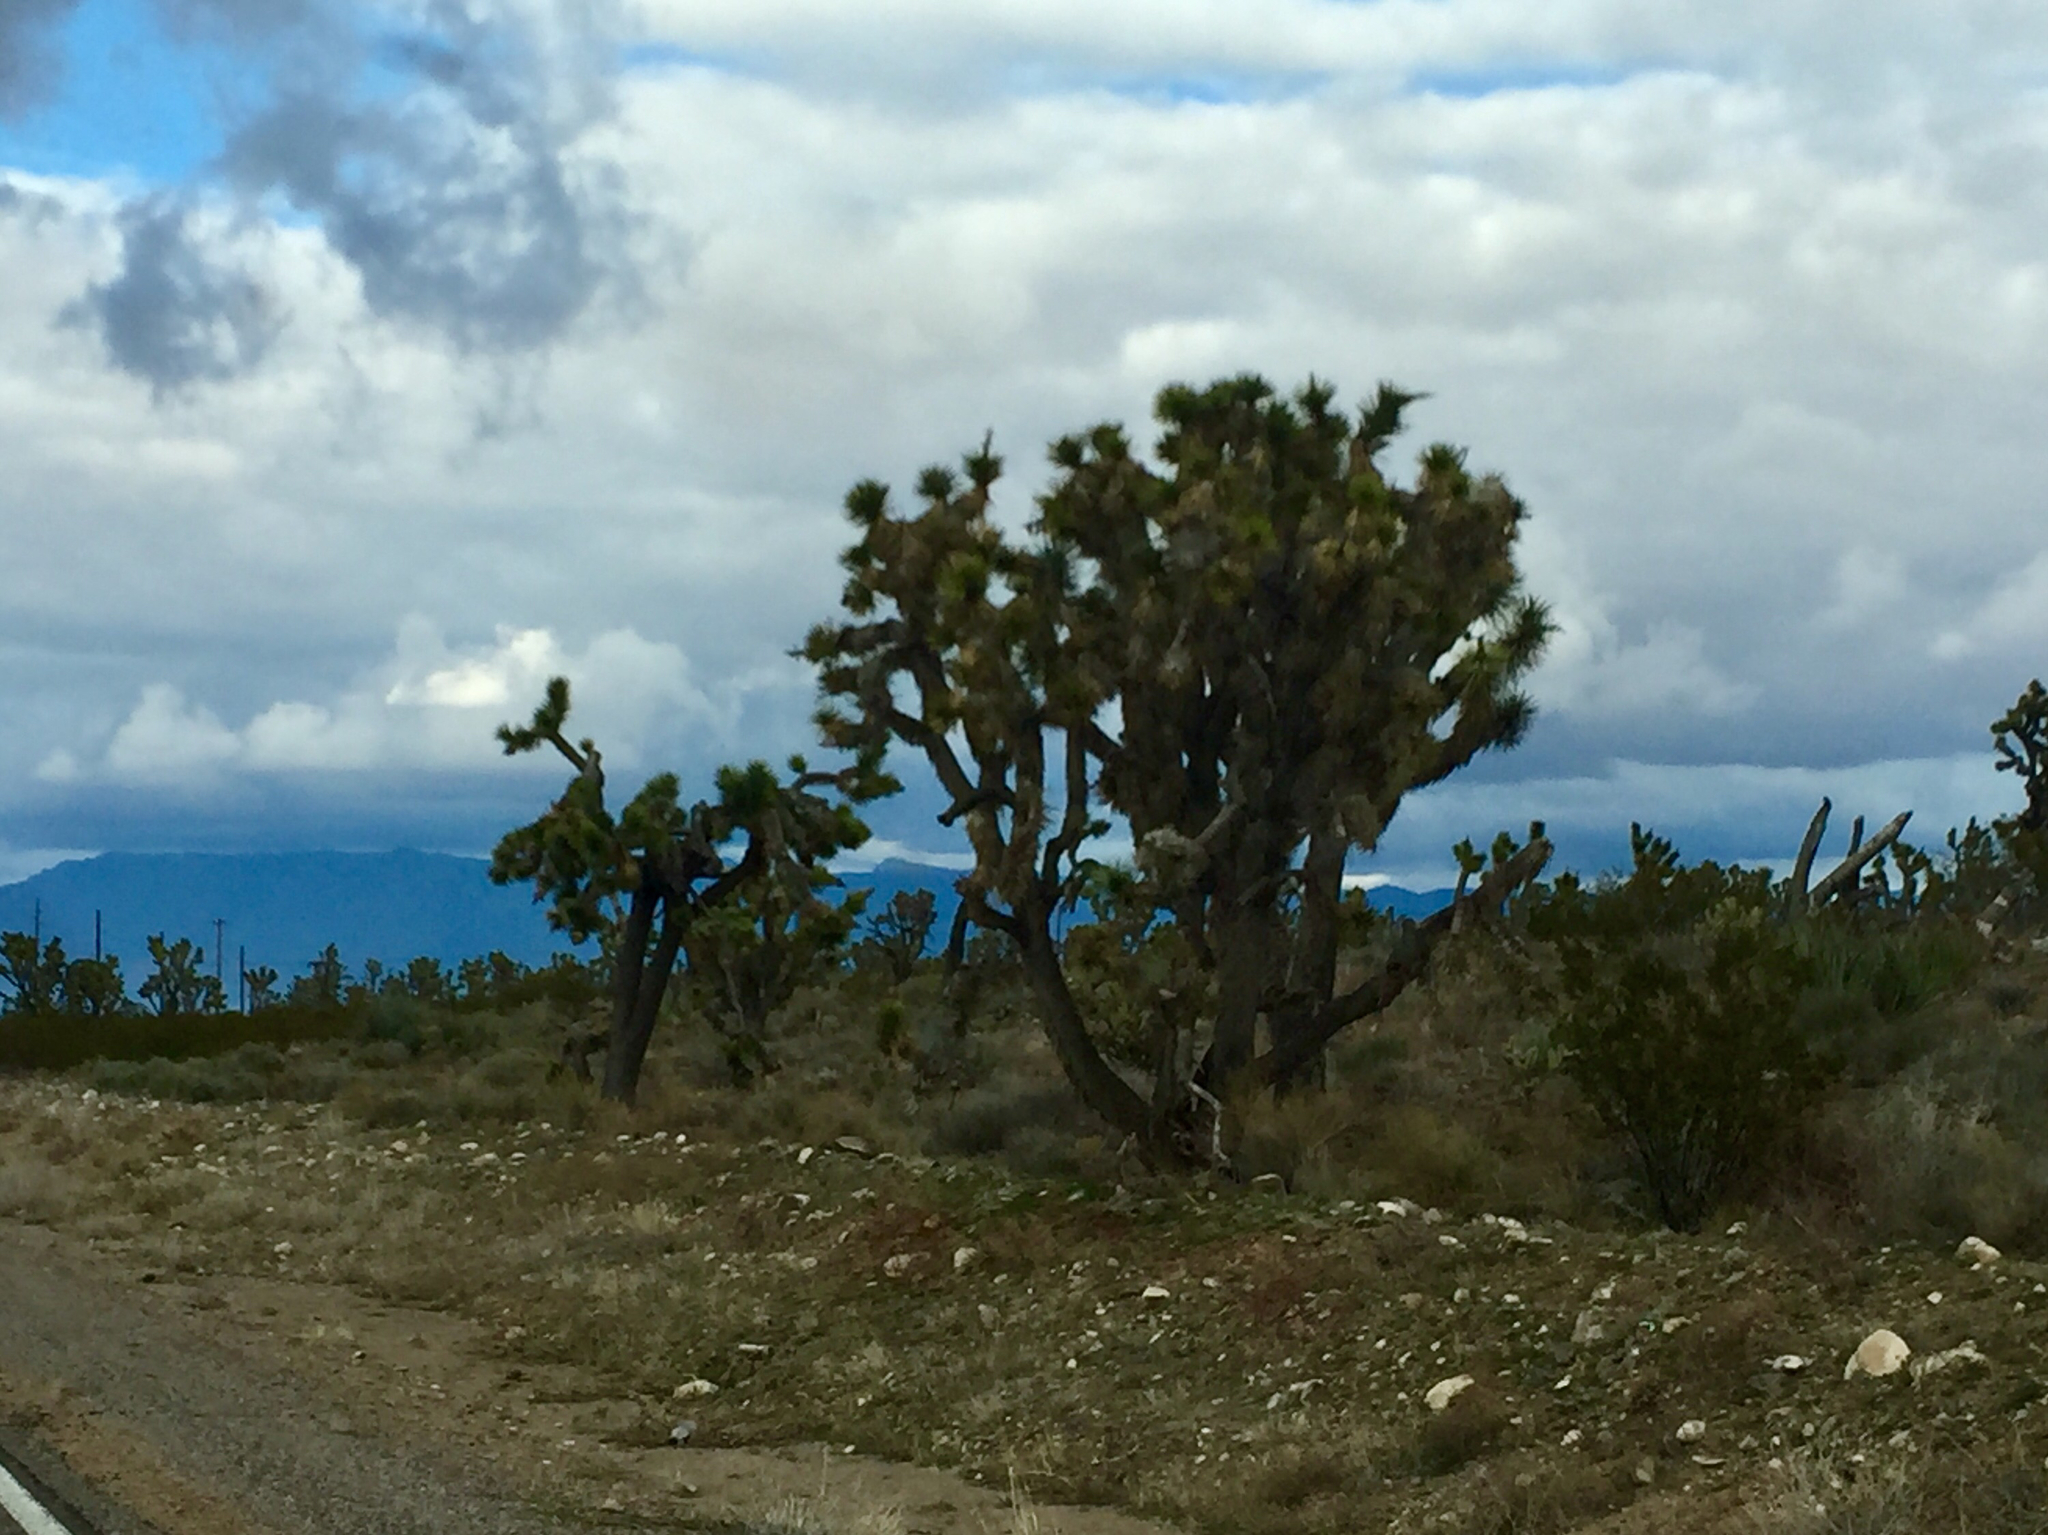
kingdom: Plantae
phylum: Tracheophyta
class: Liliopsida
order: Asparagales
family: Asparagaceae
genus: Yucca
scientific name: Yucca brevifolia
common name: Joshua tree
